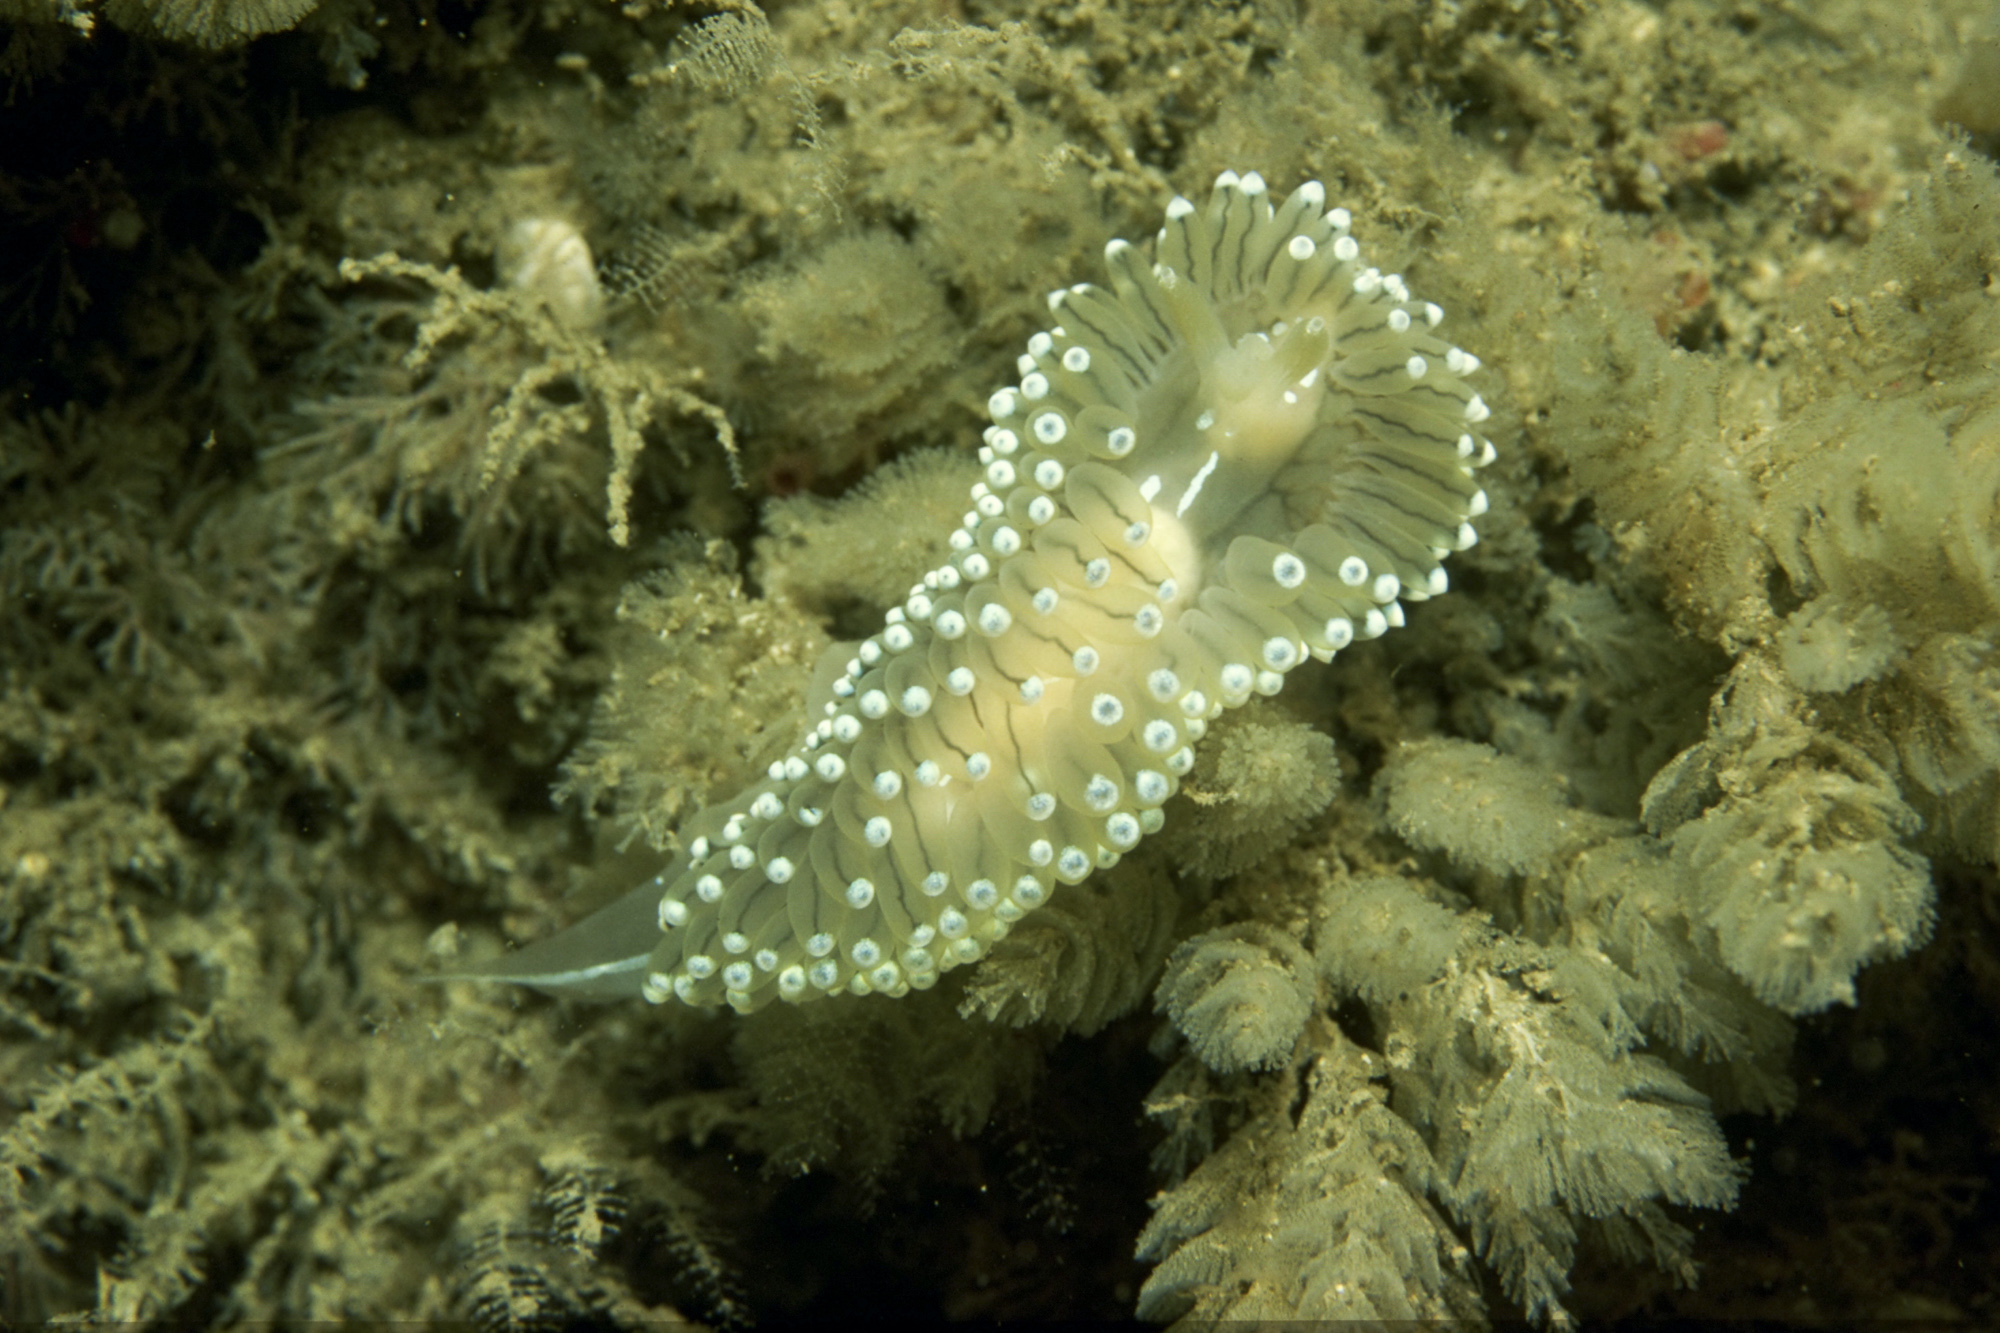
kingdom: Animalia
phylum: Mollusca
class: Gastropoda
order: Nudibranchia
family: Janolidae
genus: Antiopella
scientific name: Antiopella cristata
